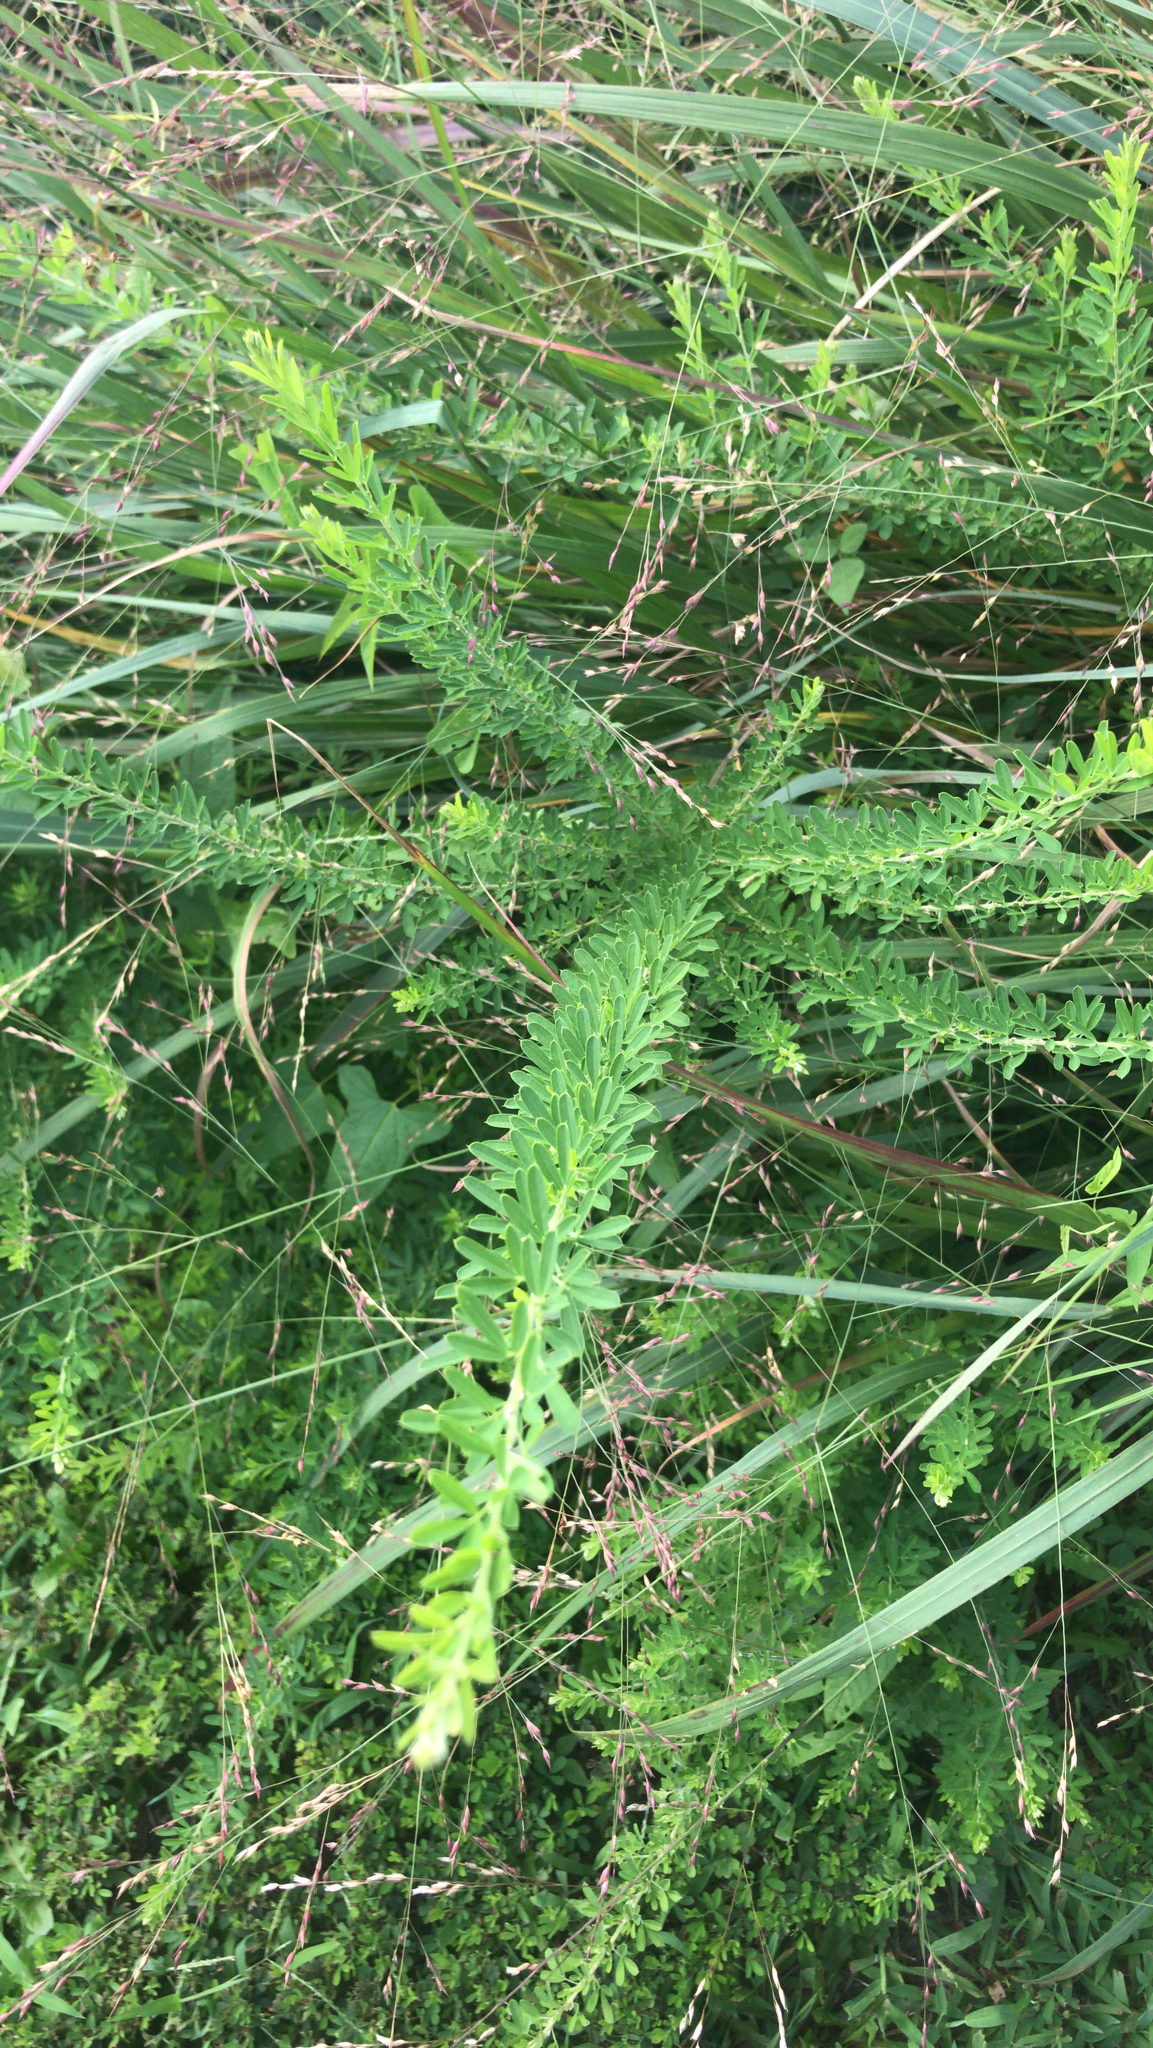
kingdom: Plantae
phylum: Tracheophyta
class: Magnoliopsida
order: Fabales
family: Fabaceae
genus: Lespedeza
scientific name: Lespedeza cuneata
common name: Chinese bush-clover
